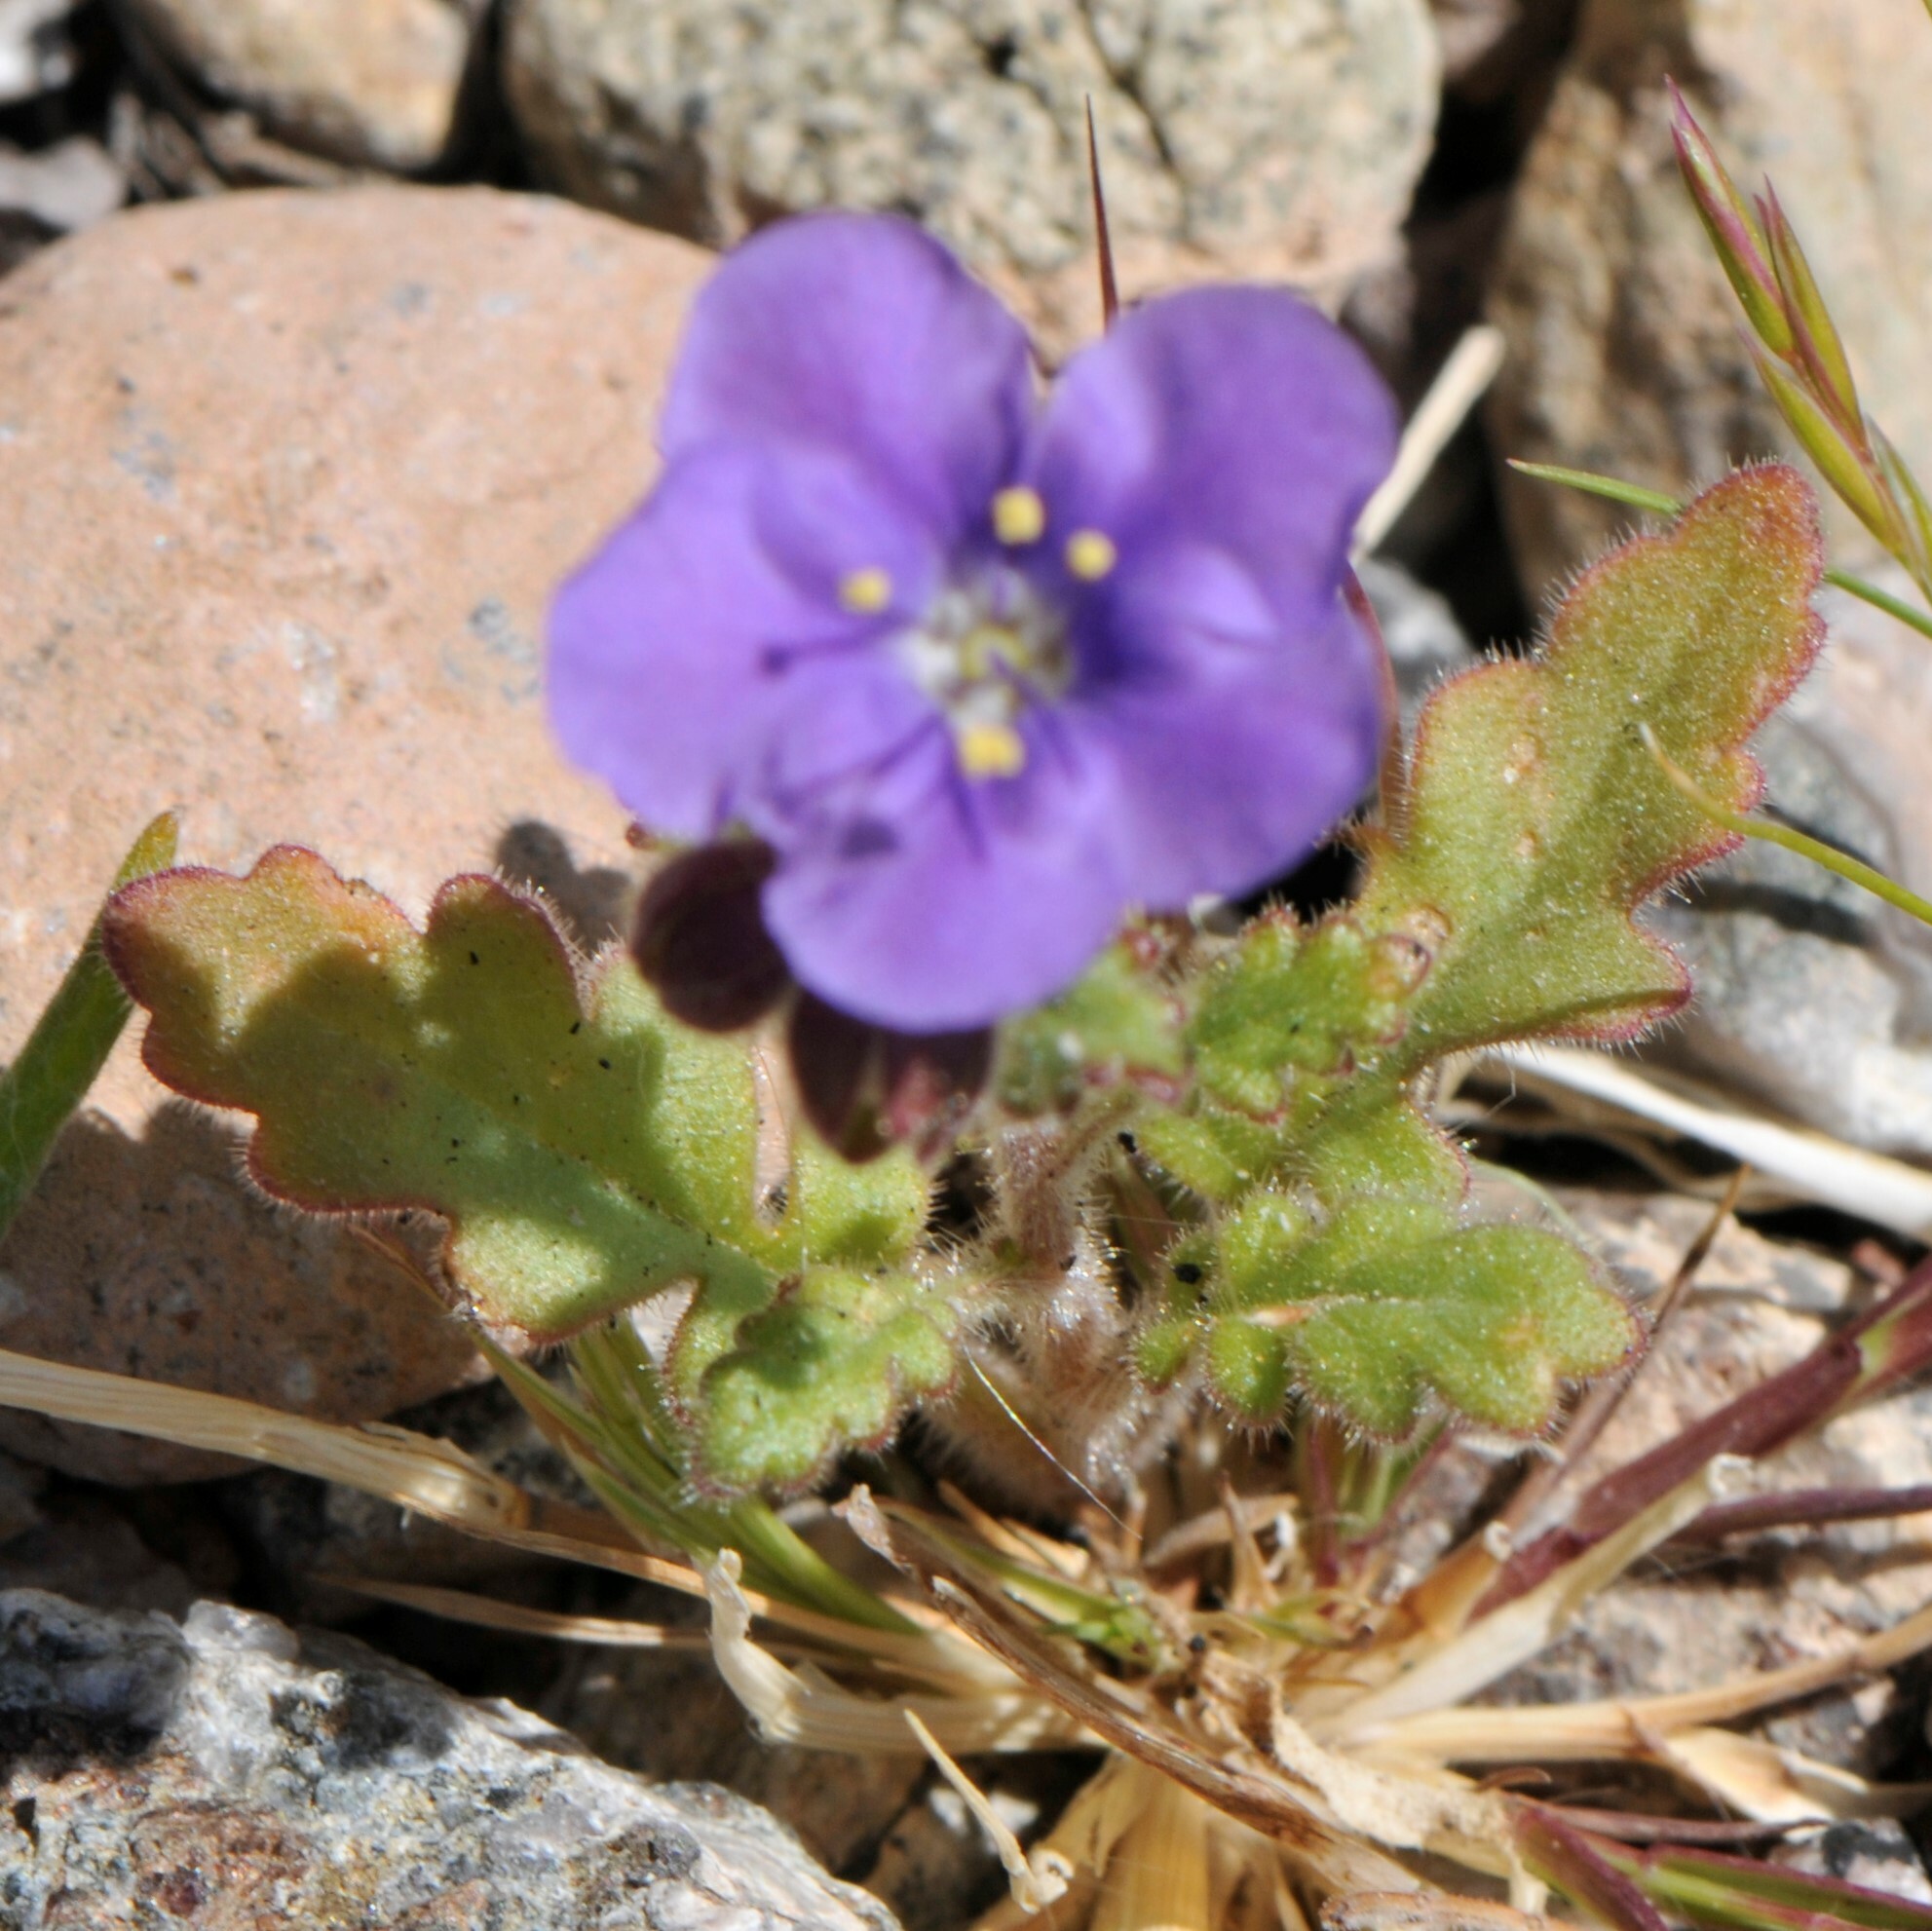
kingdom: Plantae
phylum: Tracheophyta
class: Magnoliopsida
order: Boraginales
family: Hydrophyllaceae
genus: Phacelia
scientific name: Phacelia crenulata
